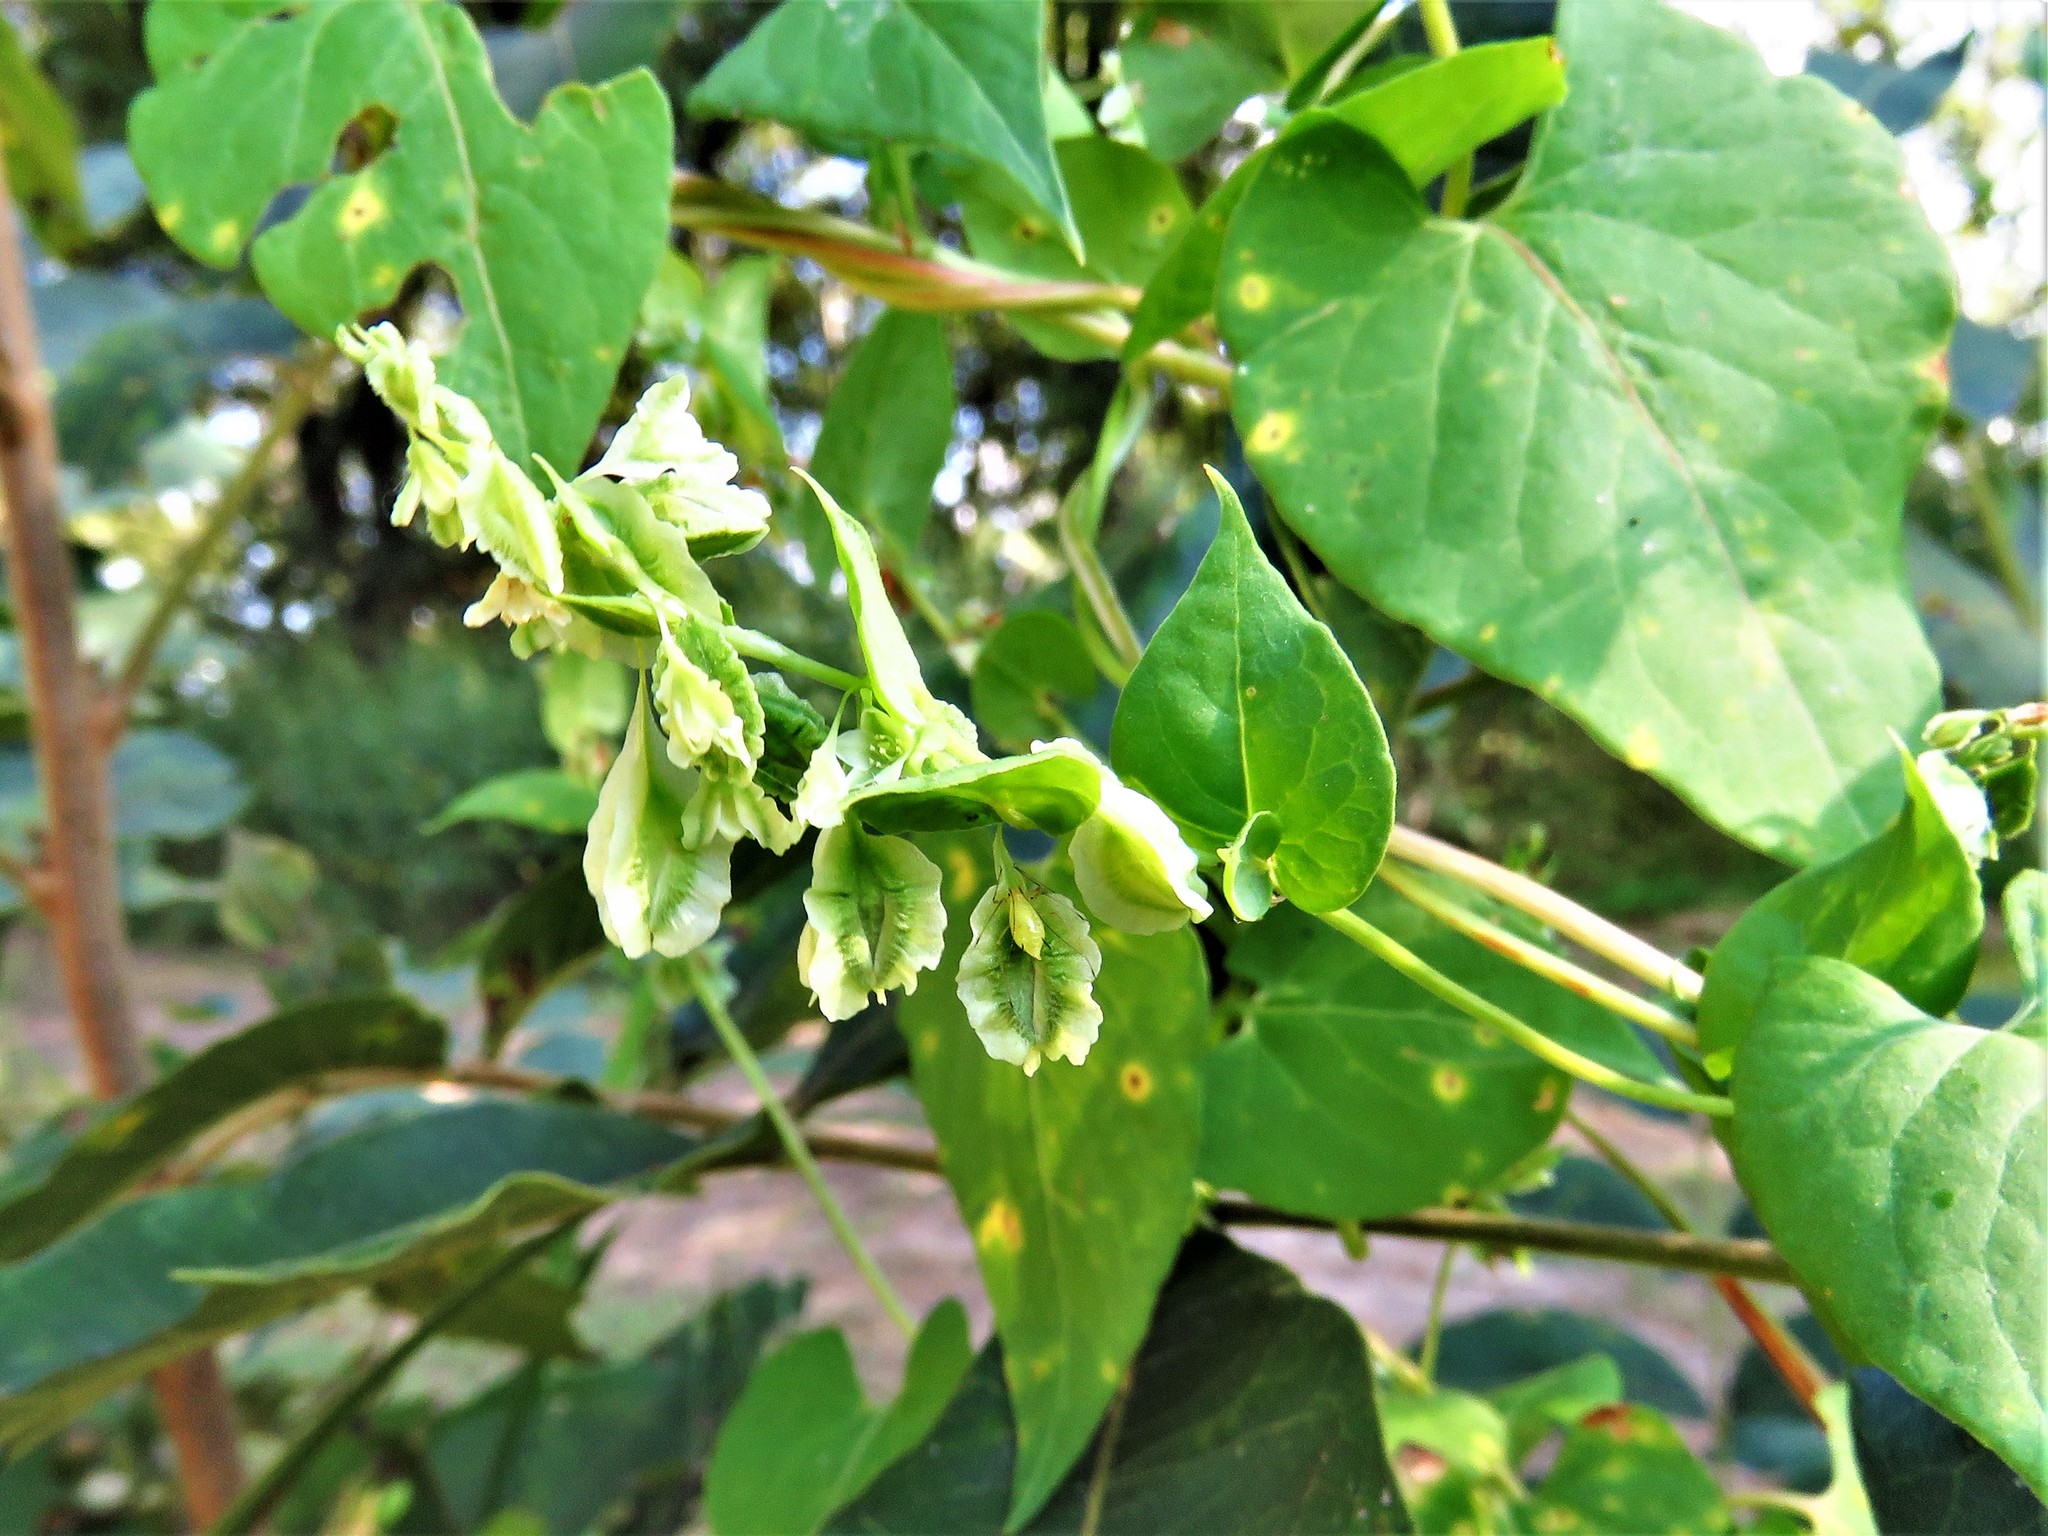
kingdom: Plantae
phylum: Tracheophyta
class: Magnoliopsida
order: Caryophyllales
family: Polygonaceae
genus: Fallopia
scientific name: Fallopia scandens
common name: Climbing false buckwheat
